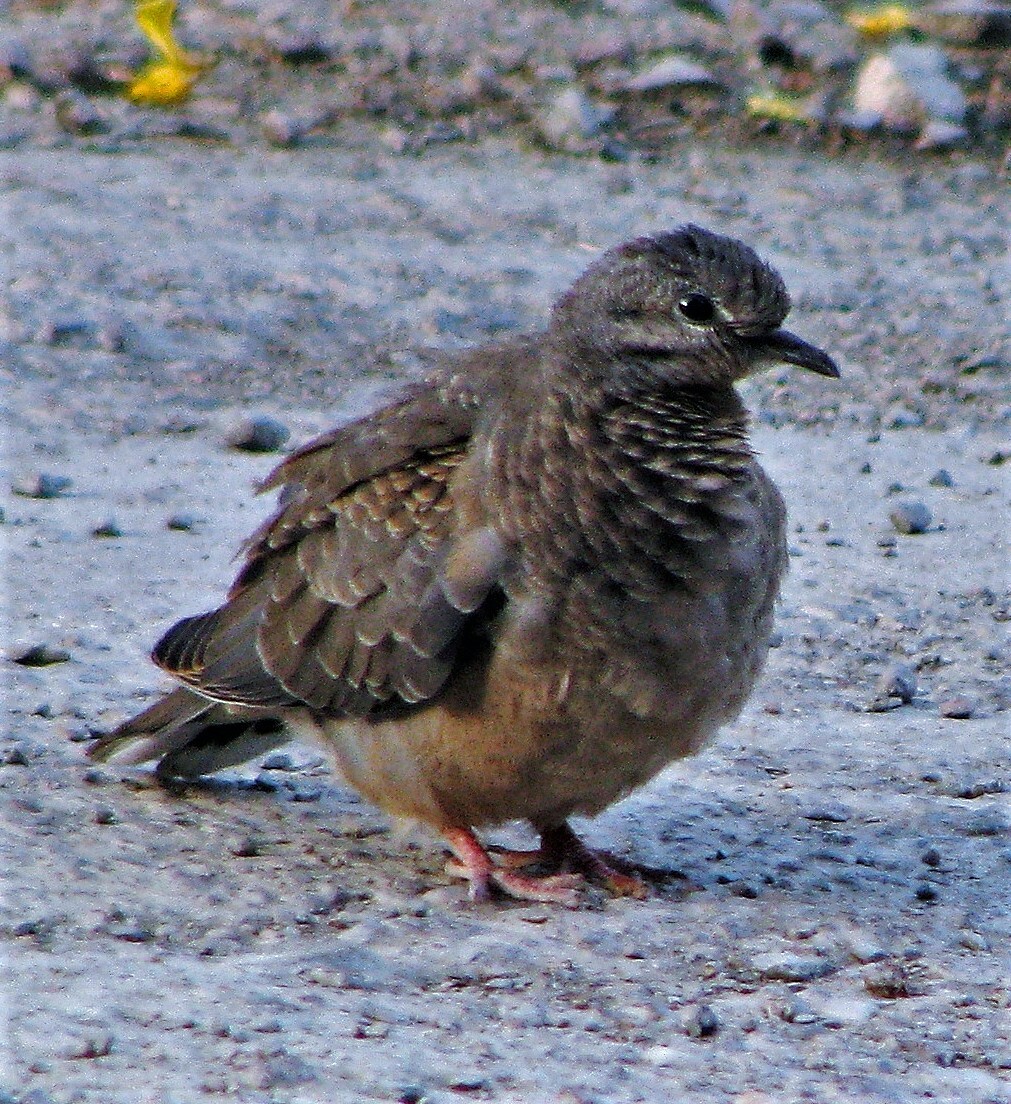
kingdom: Animalia
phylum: Chordata
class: Aves
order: Columbiformes
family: Columbidae
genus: Zenaida
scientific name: Zenaida auriculata
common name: Eared dove
